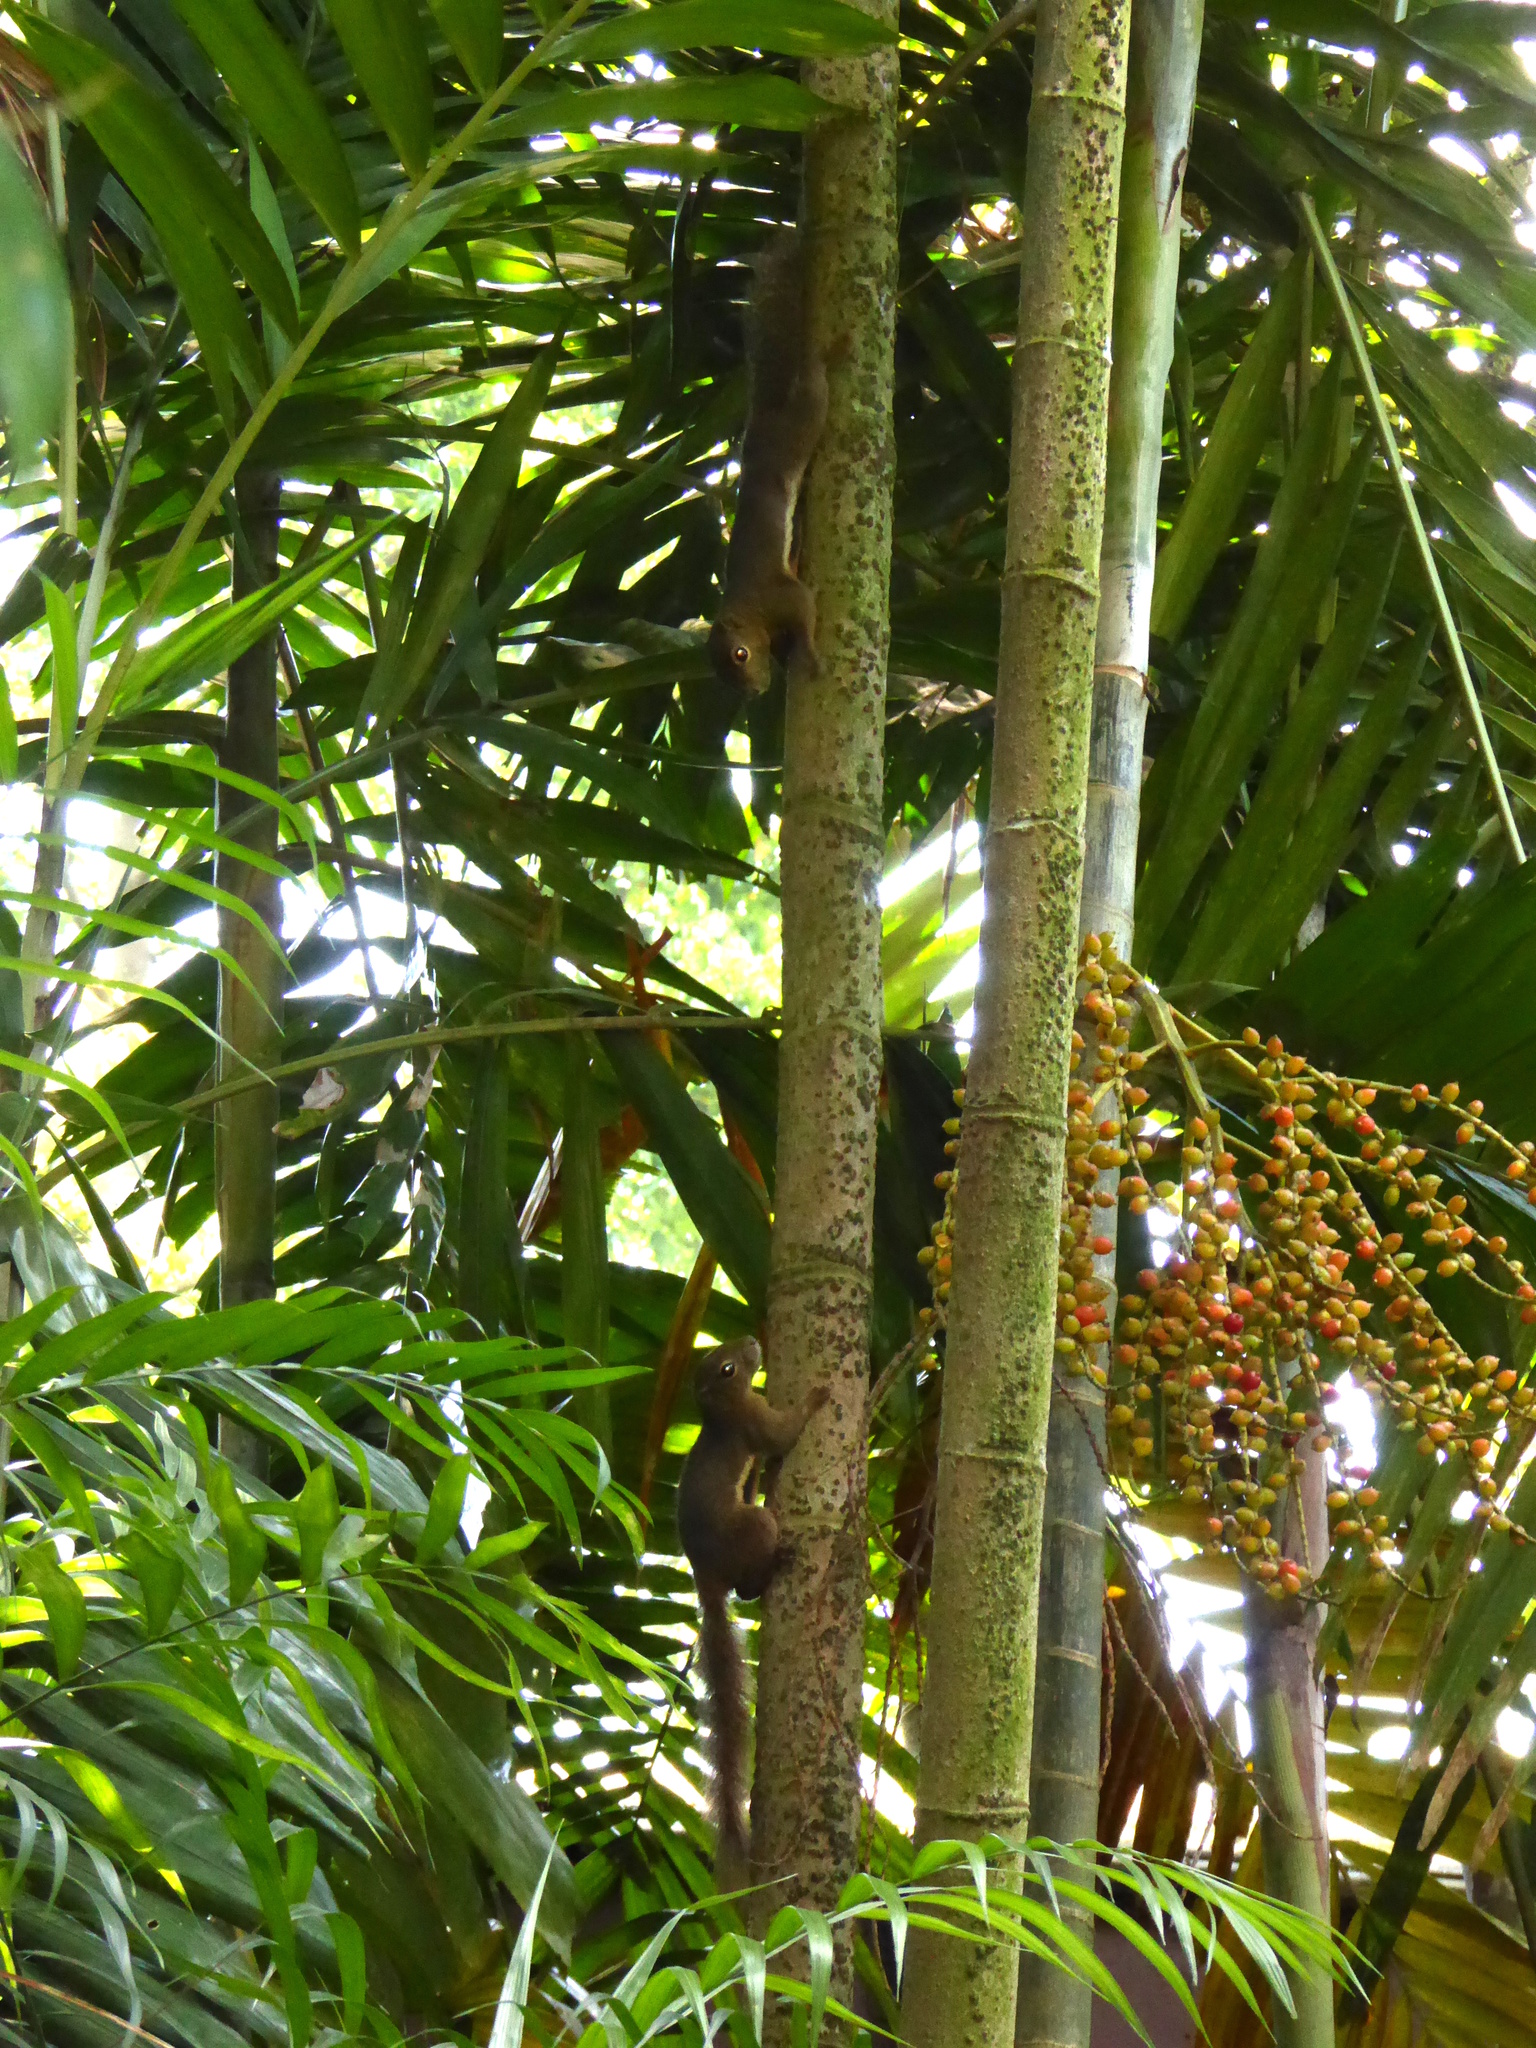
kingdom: Animalia
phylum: Chordata
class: Mammalia
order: Rodentia
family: Sciuridae
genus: Callosciurus
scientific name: Callosciurus notatus
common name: Plantain squirrel
